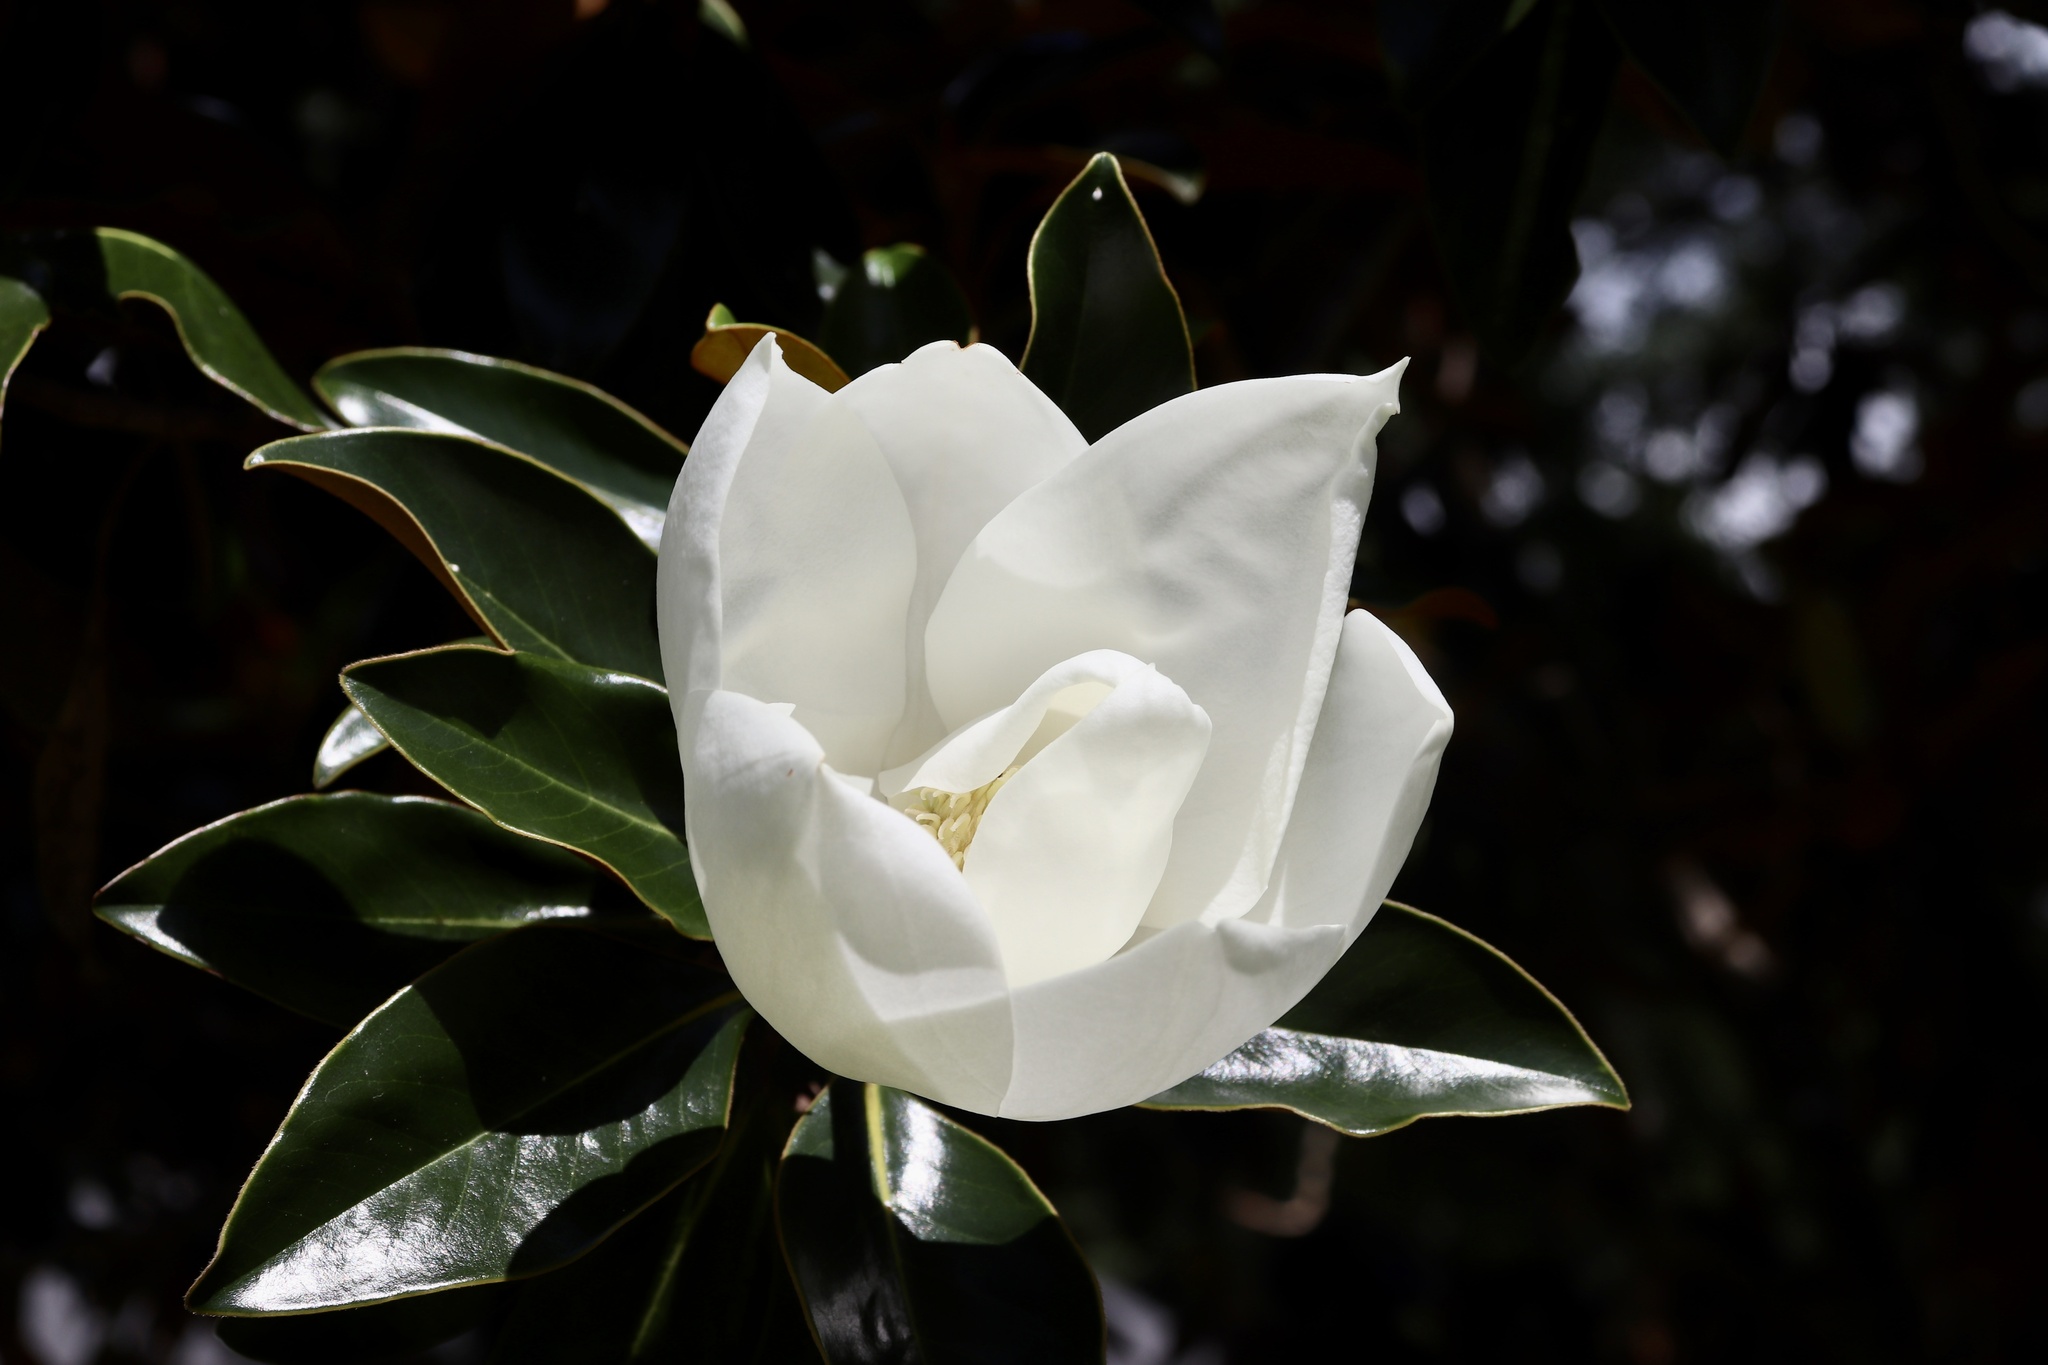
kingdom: Plantae
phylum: Tracheophyta
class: Magnoliopsida
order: Magnoliales
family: Magnoliaceae
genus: Magnolia
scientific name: Magnolia grandiflora
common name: Southern magnolia
